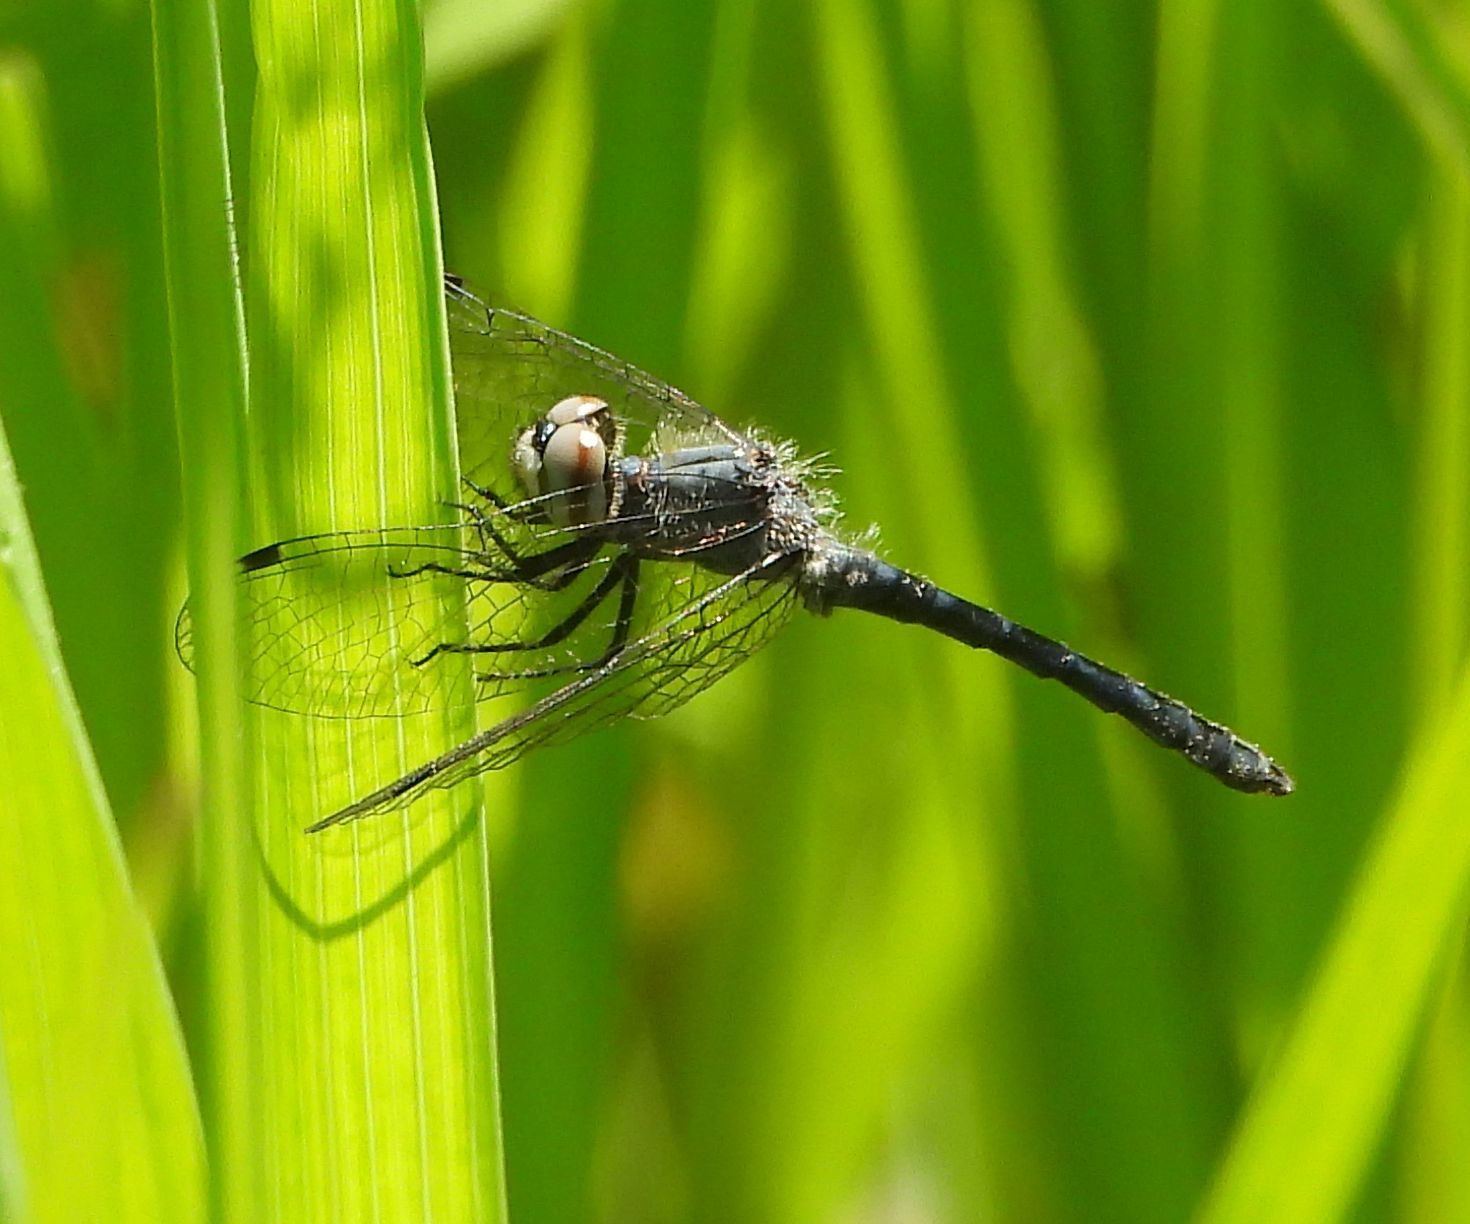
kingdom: Animalia
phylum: Arthropoda
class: Insecta
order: Odonata
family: Libellulidae
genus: Nannothemis
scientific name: Nannothemis bella
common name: Elfin skimmer
